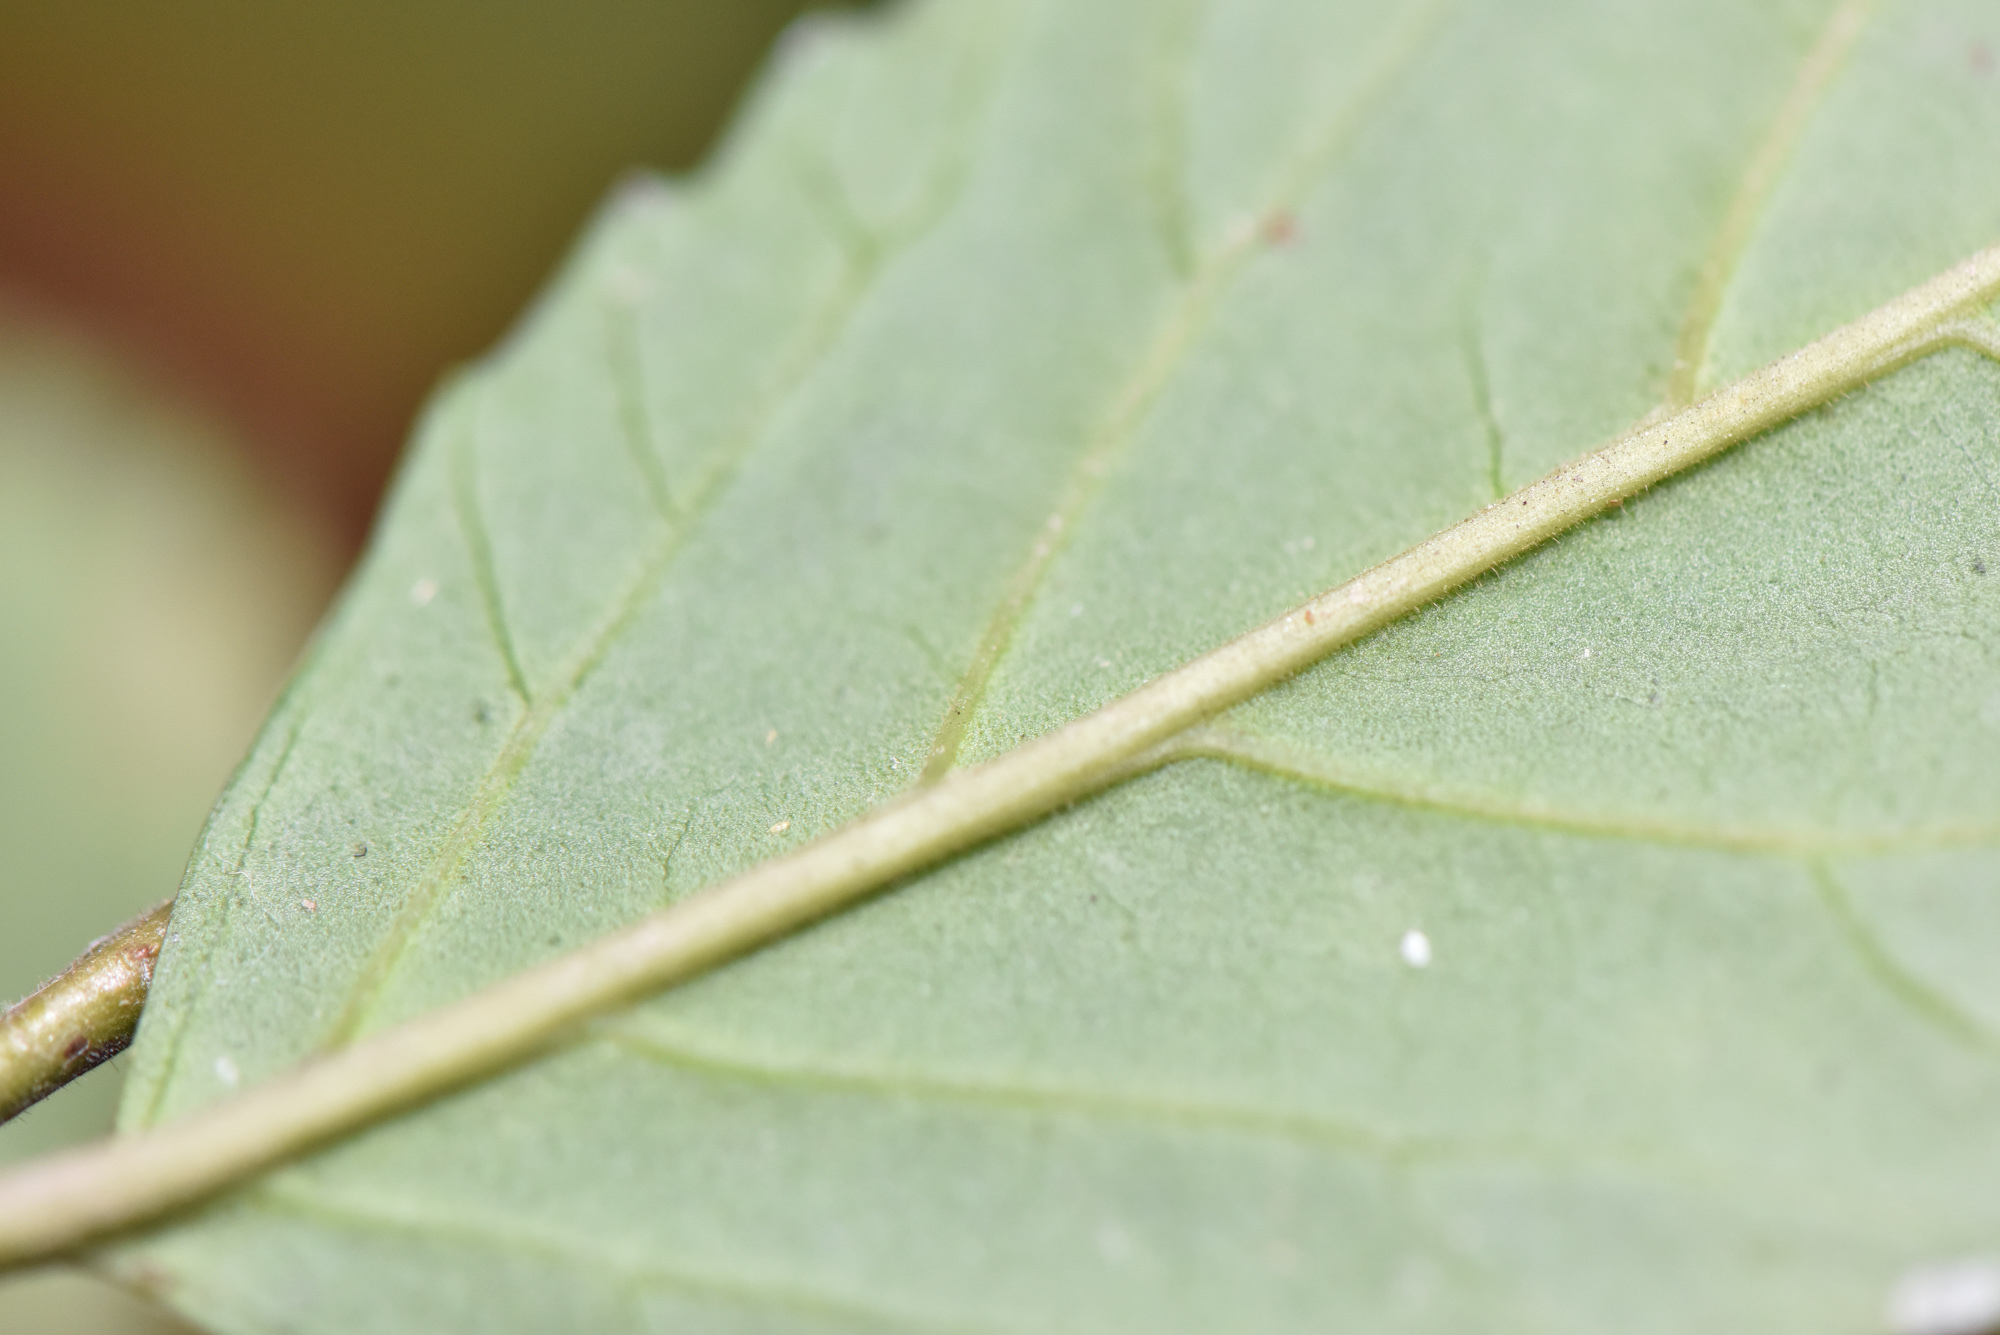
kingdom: Plantae
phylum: Tracheophyta
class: Magnoliopsida
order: Ericales
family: Primulaceae
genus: Maesa
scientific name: Maesa perlaria
